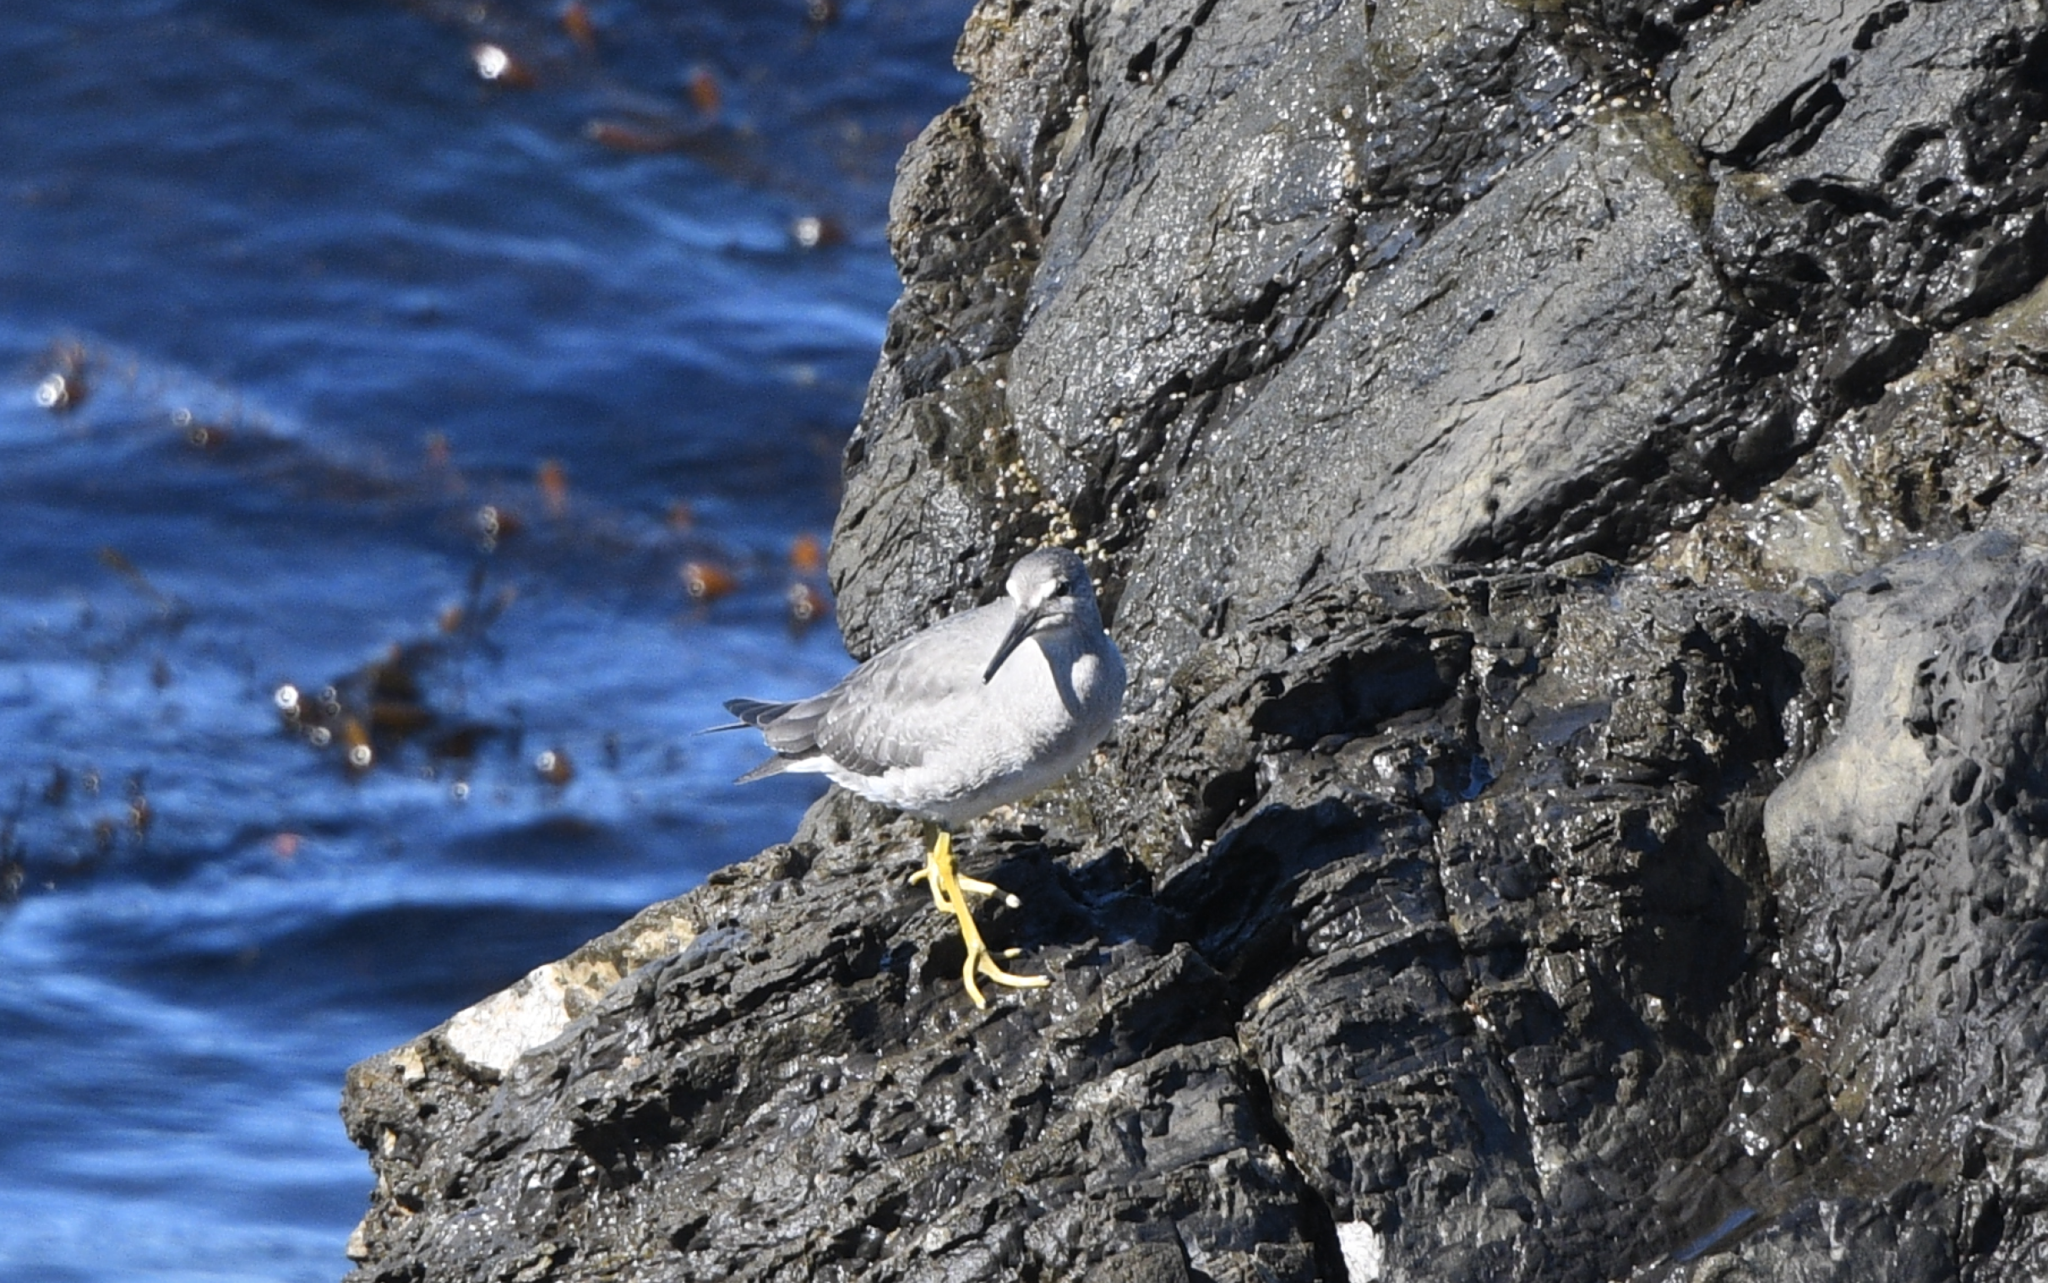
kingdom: Animalia
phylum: Chordata
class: Aves
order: Charadriiformes
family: Scolopacidae
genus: Tringa
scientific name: Tringa incana
